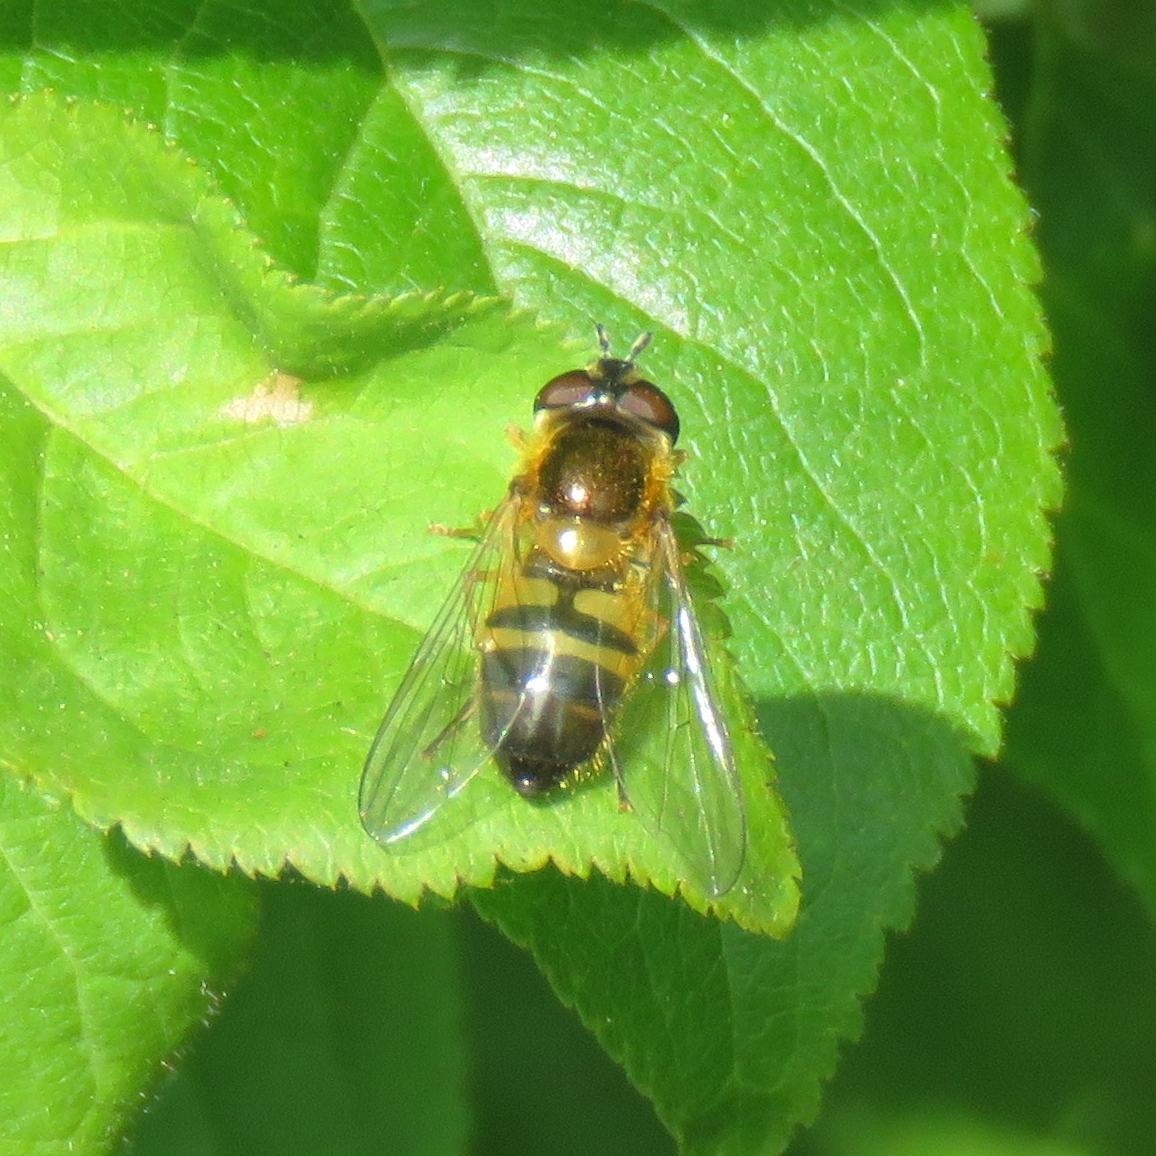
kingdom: Animalia
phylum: Arthropoda
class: Insecta
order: Diptera
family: Syrphidae
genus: Epistrophe
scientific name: Epistrophe eligans
